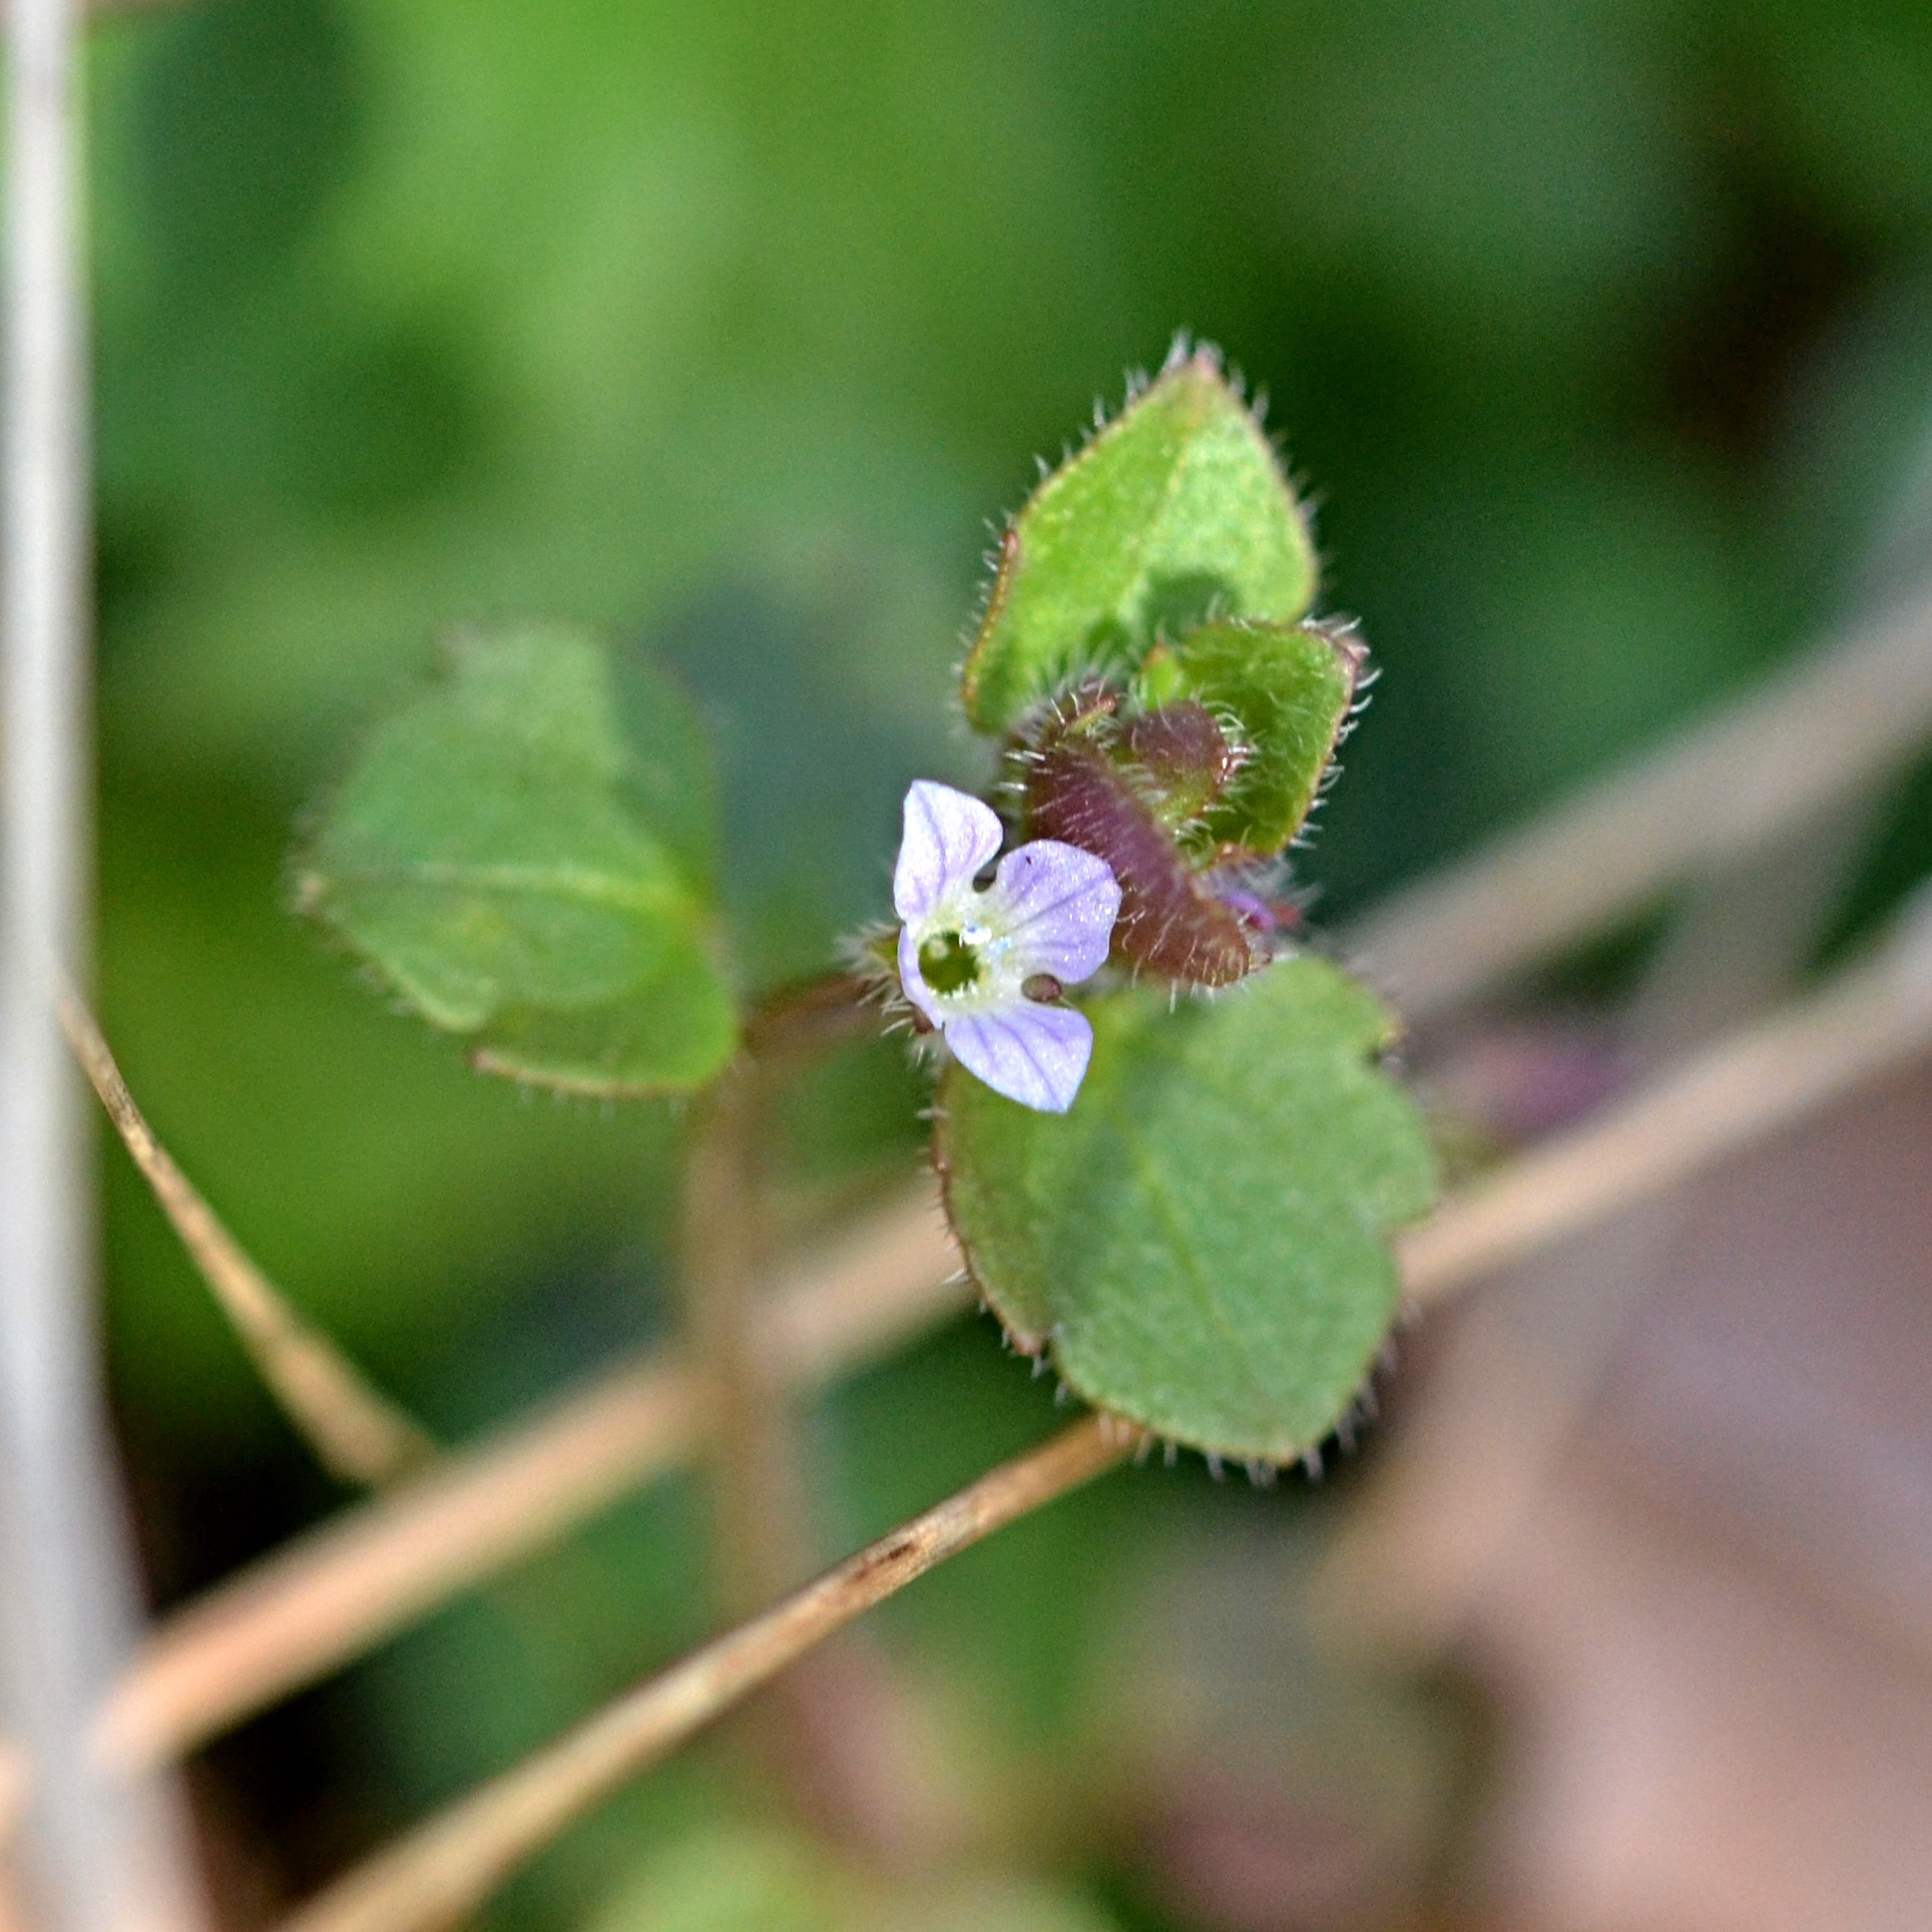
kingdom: Plantae
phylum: Tracheophyta
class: Magnoliopsida
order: Lamiales
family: Plantaginaceae
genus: Veronica
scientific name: Veronica sublobata
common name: False ivy-leaved speedwell
